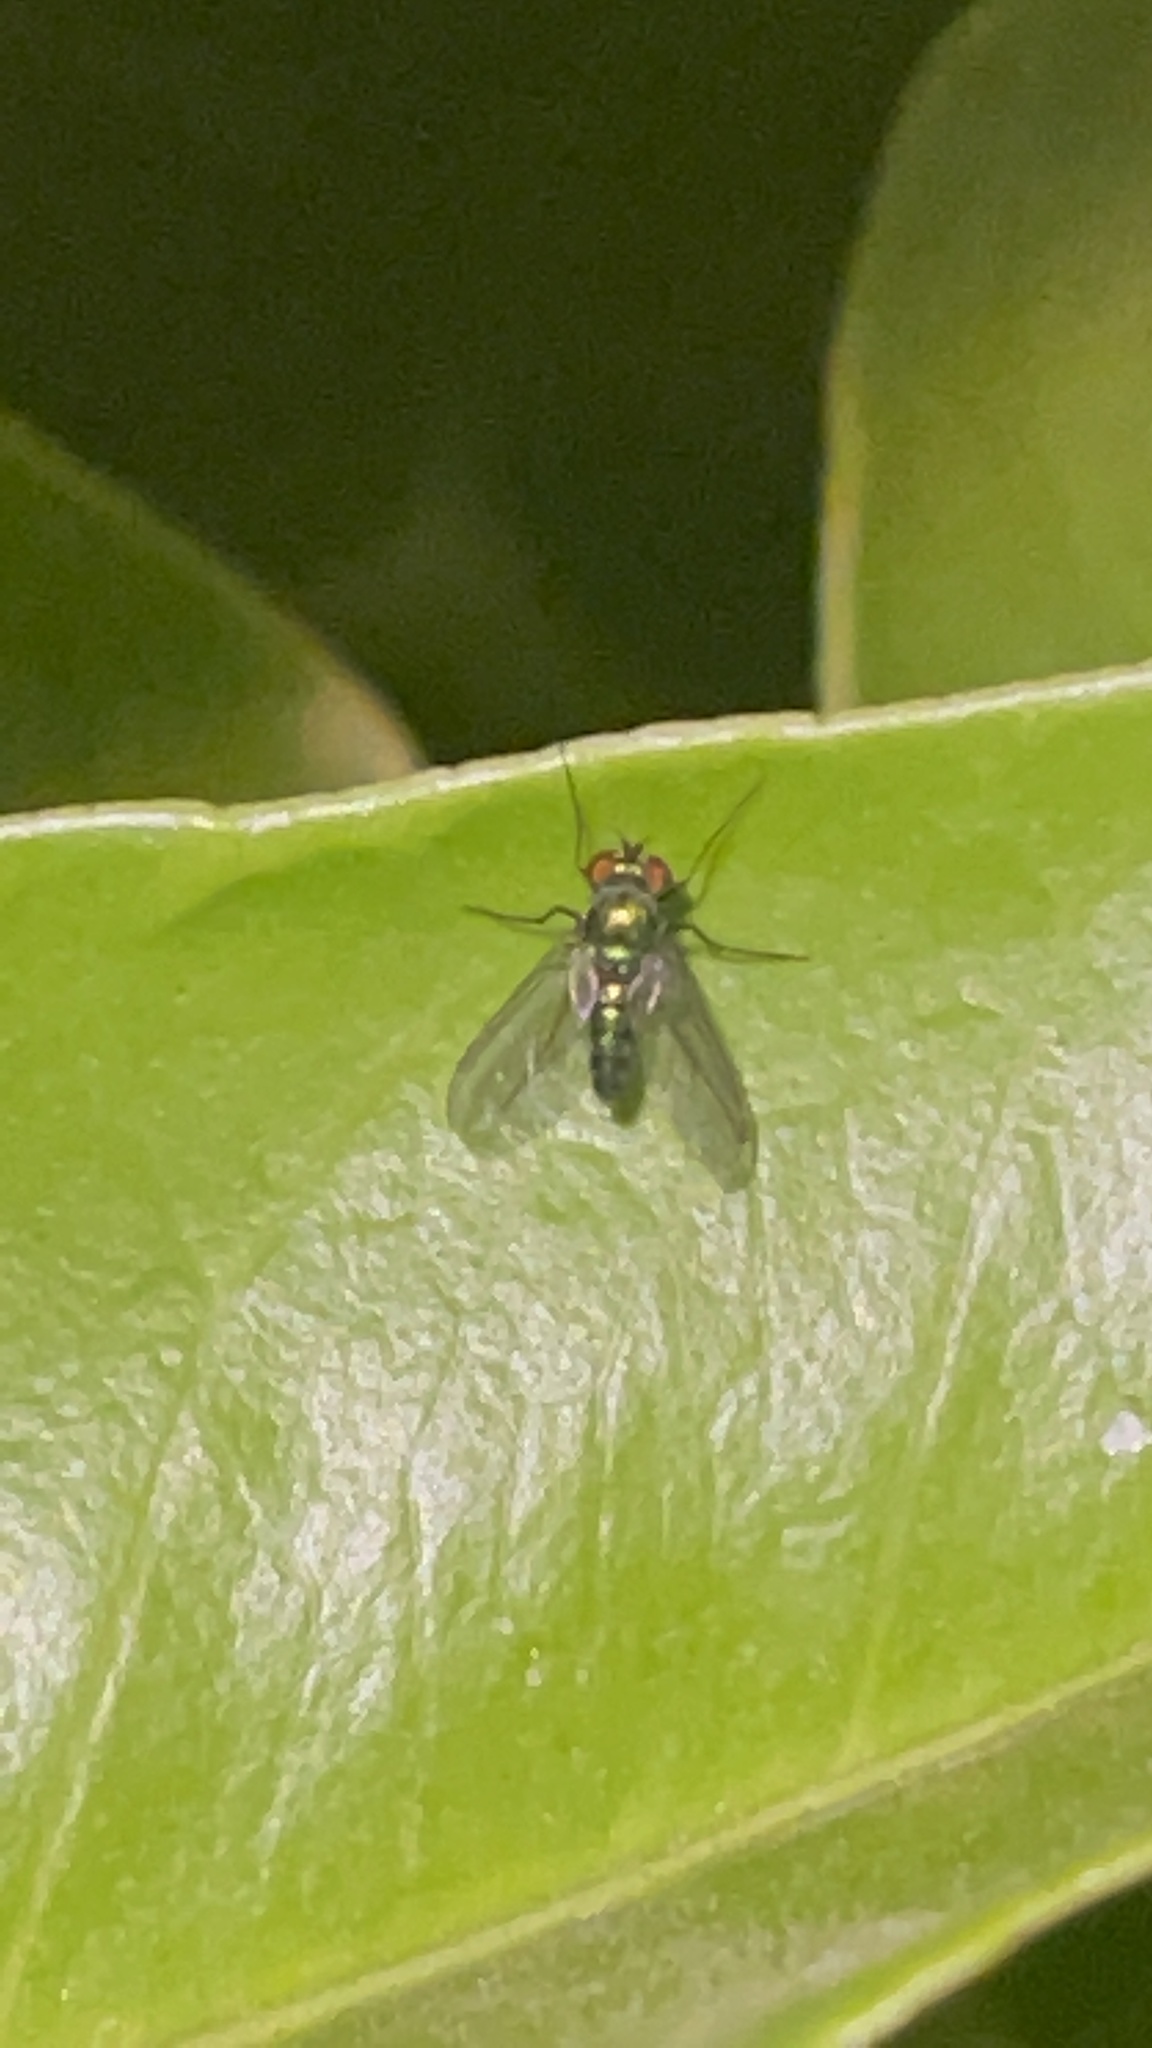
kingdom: Animalia
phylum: Arthropoda
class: Insecta
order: Diptera
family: Dolichopodidae
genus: Condylostylus
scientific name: Condylostylus longicornis
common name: Long-legged fly
